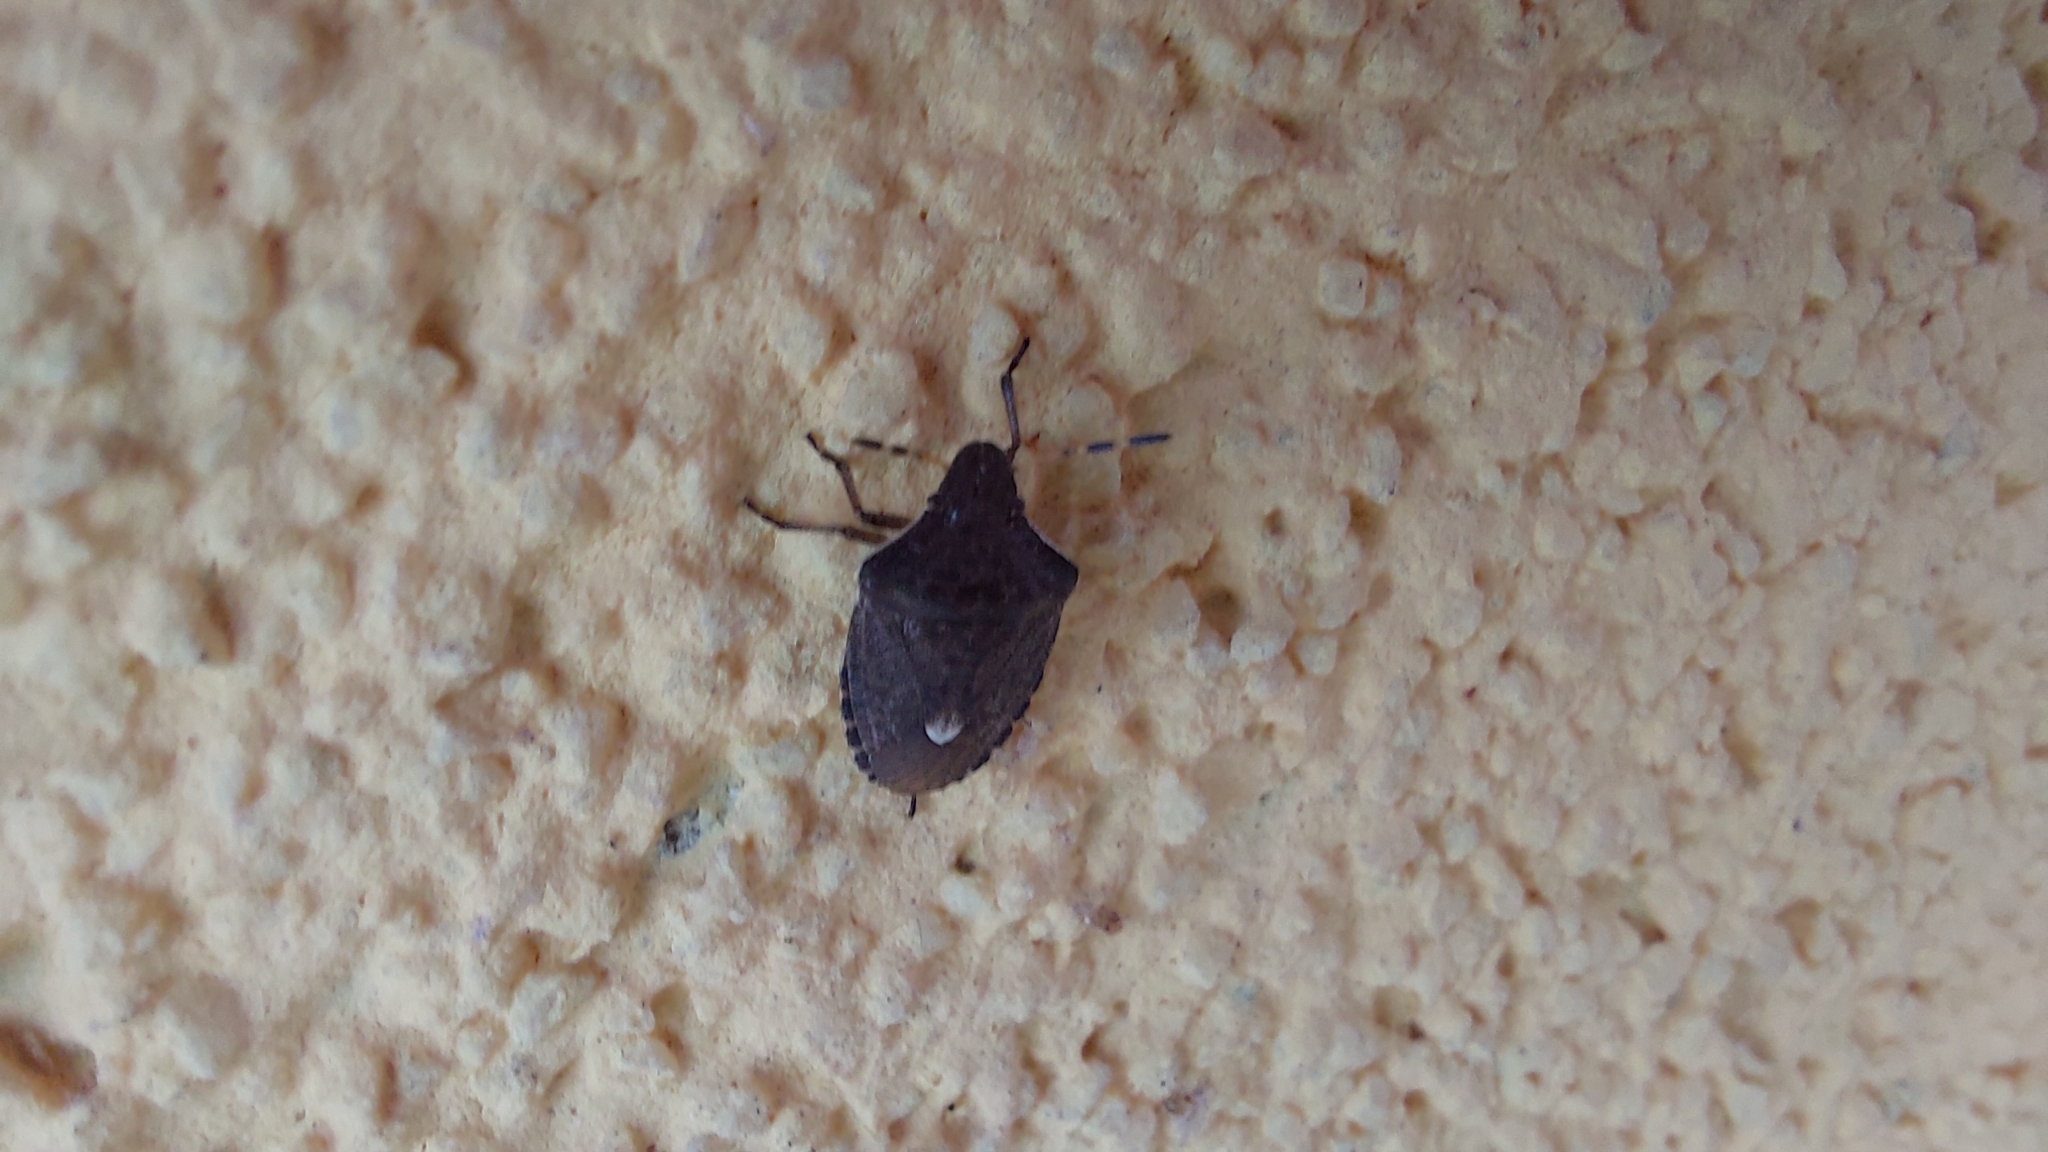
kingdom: Animalia
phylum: Arthropoda
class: Insecta
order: Hemiptera
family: Pentatomidae
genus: Holcostethus
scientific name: Holcostethus sphacelatus
